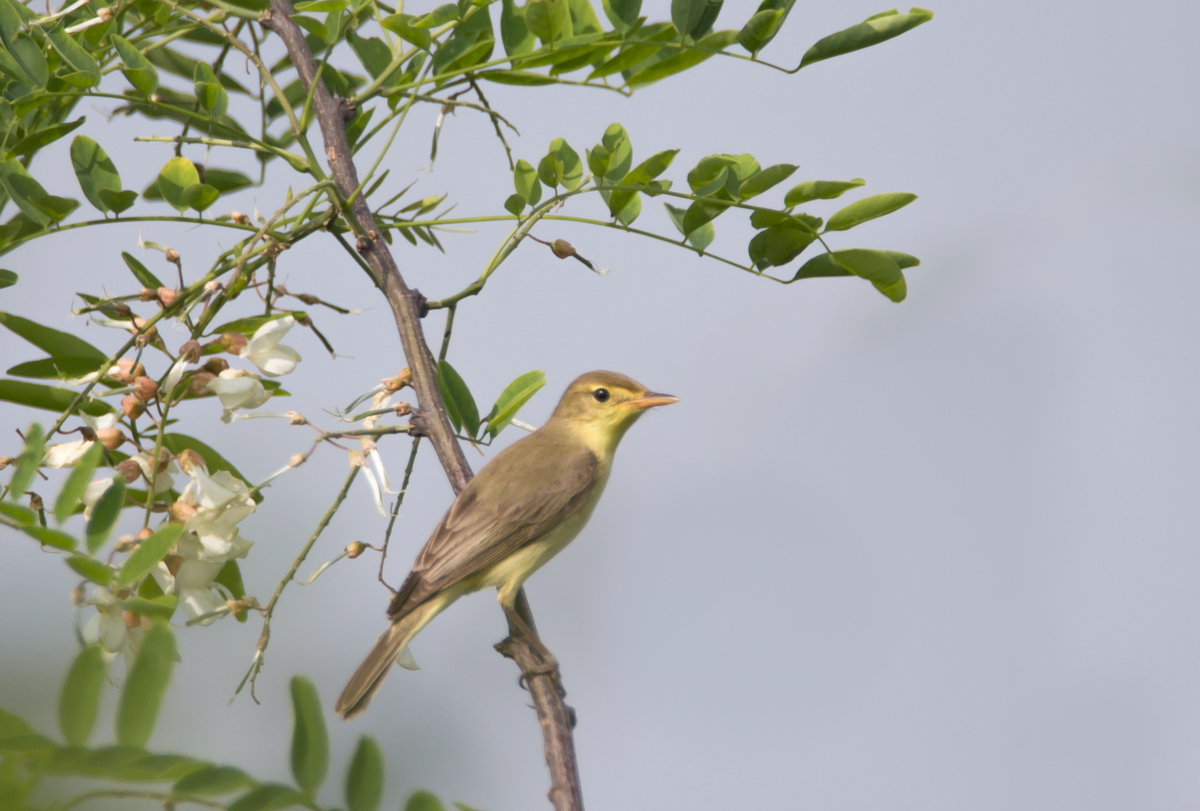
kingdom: Animalia
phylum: Chordata
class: Aves
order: Passeriformes
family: Acrocephalidae
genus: Hippolais
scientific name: Hippolais polyglotta
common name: Melodious warbler
